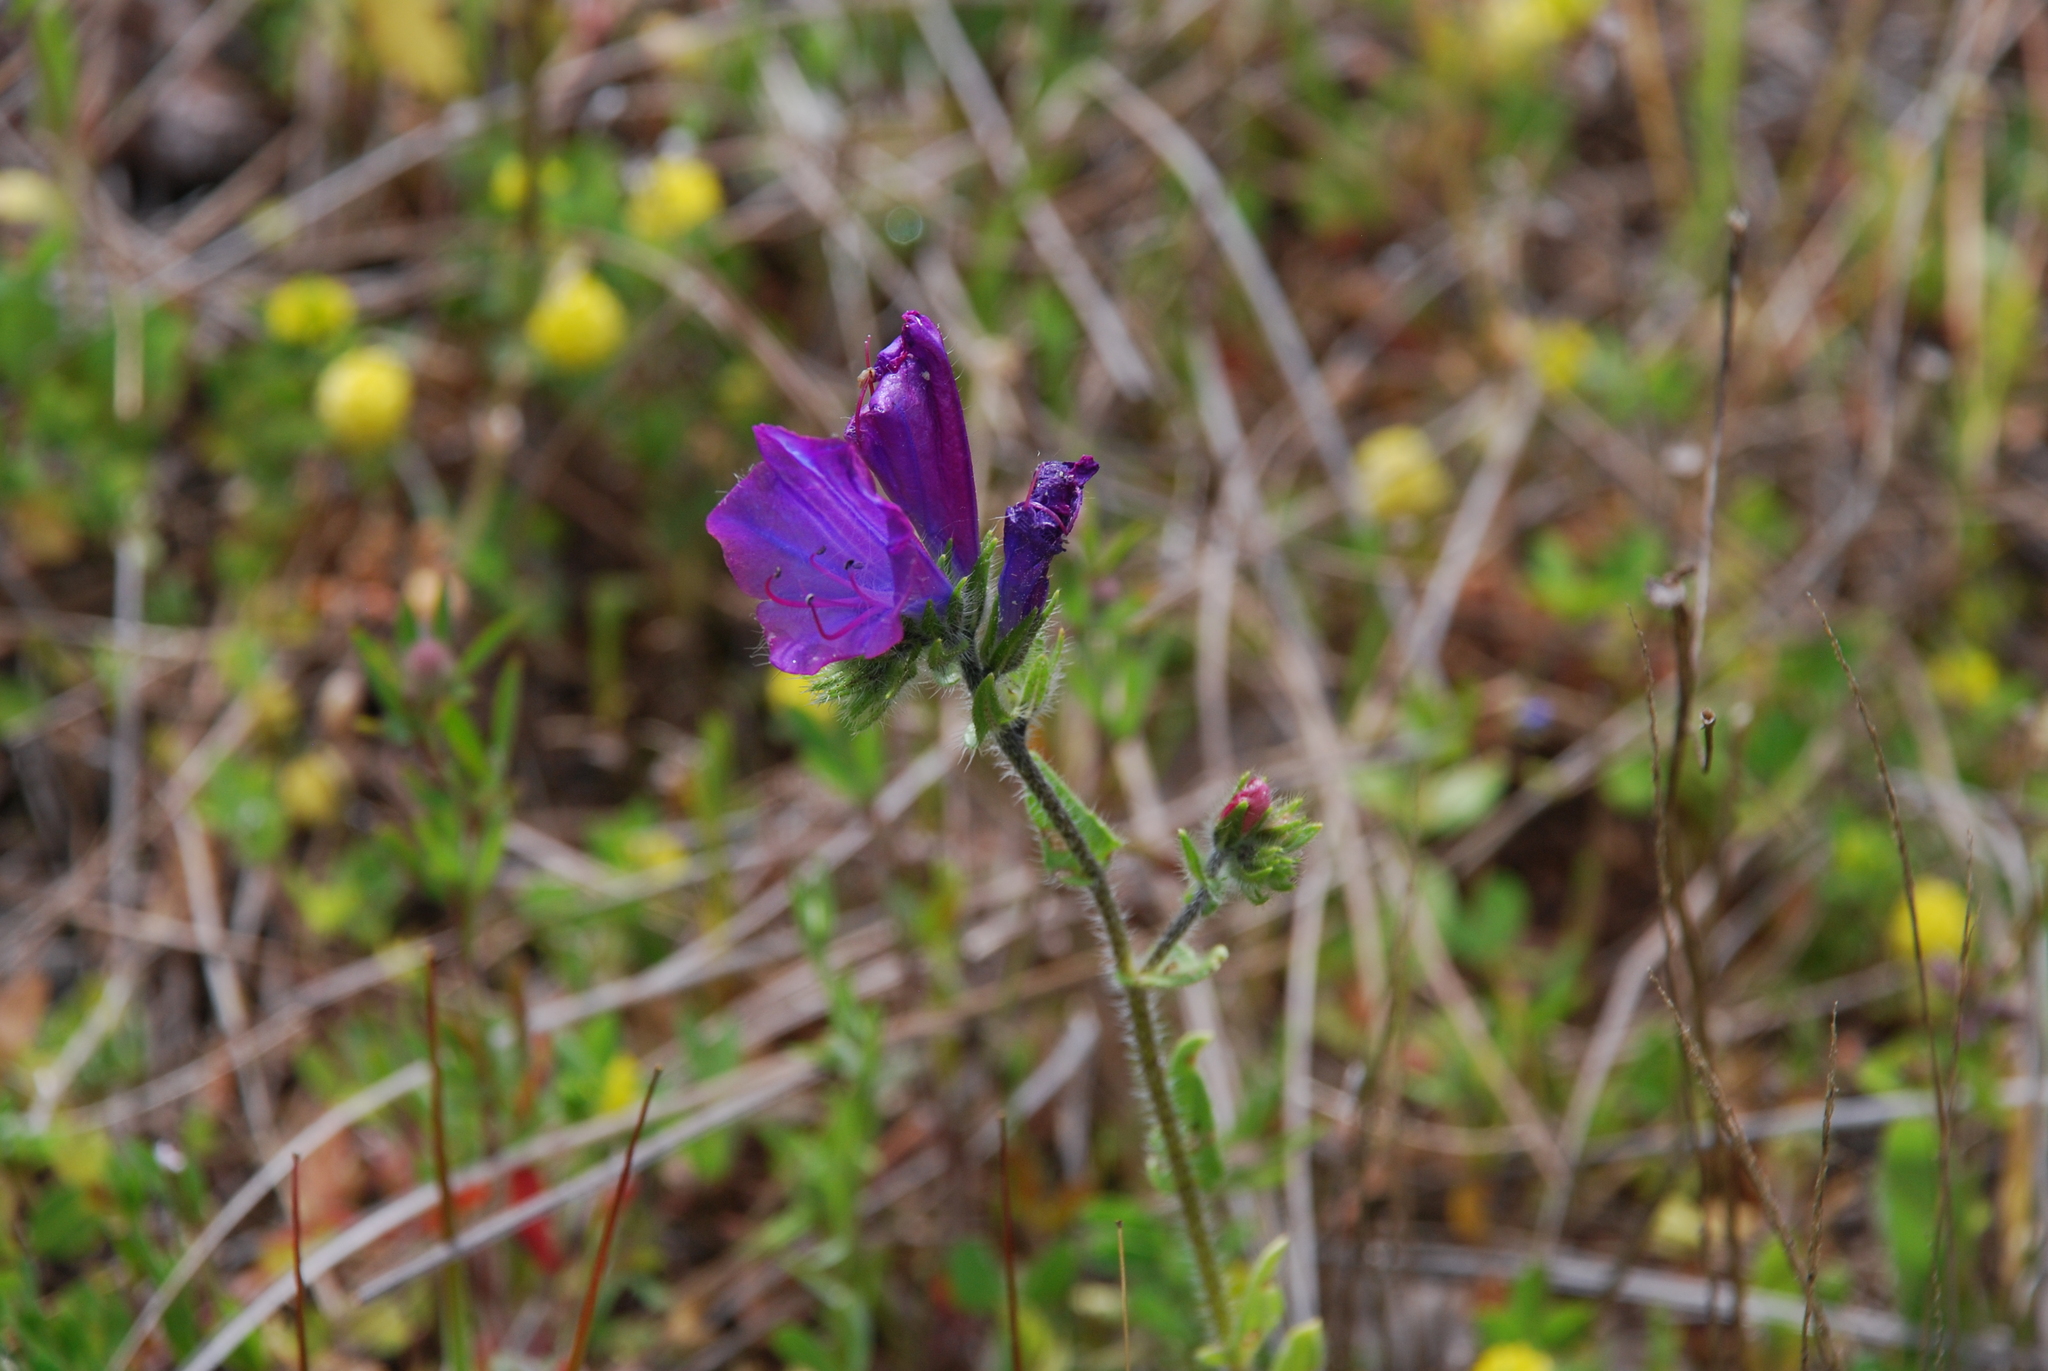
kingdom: Plantae
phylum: Tracheophyta
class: Magnoliopsida
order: Boraginales
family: Boraginaceae
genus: Echium
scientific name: Echium plantagineum
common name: Purple viper's-bugloss
